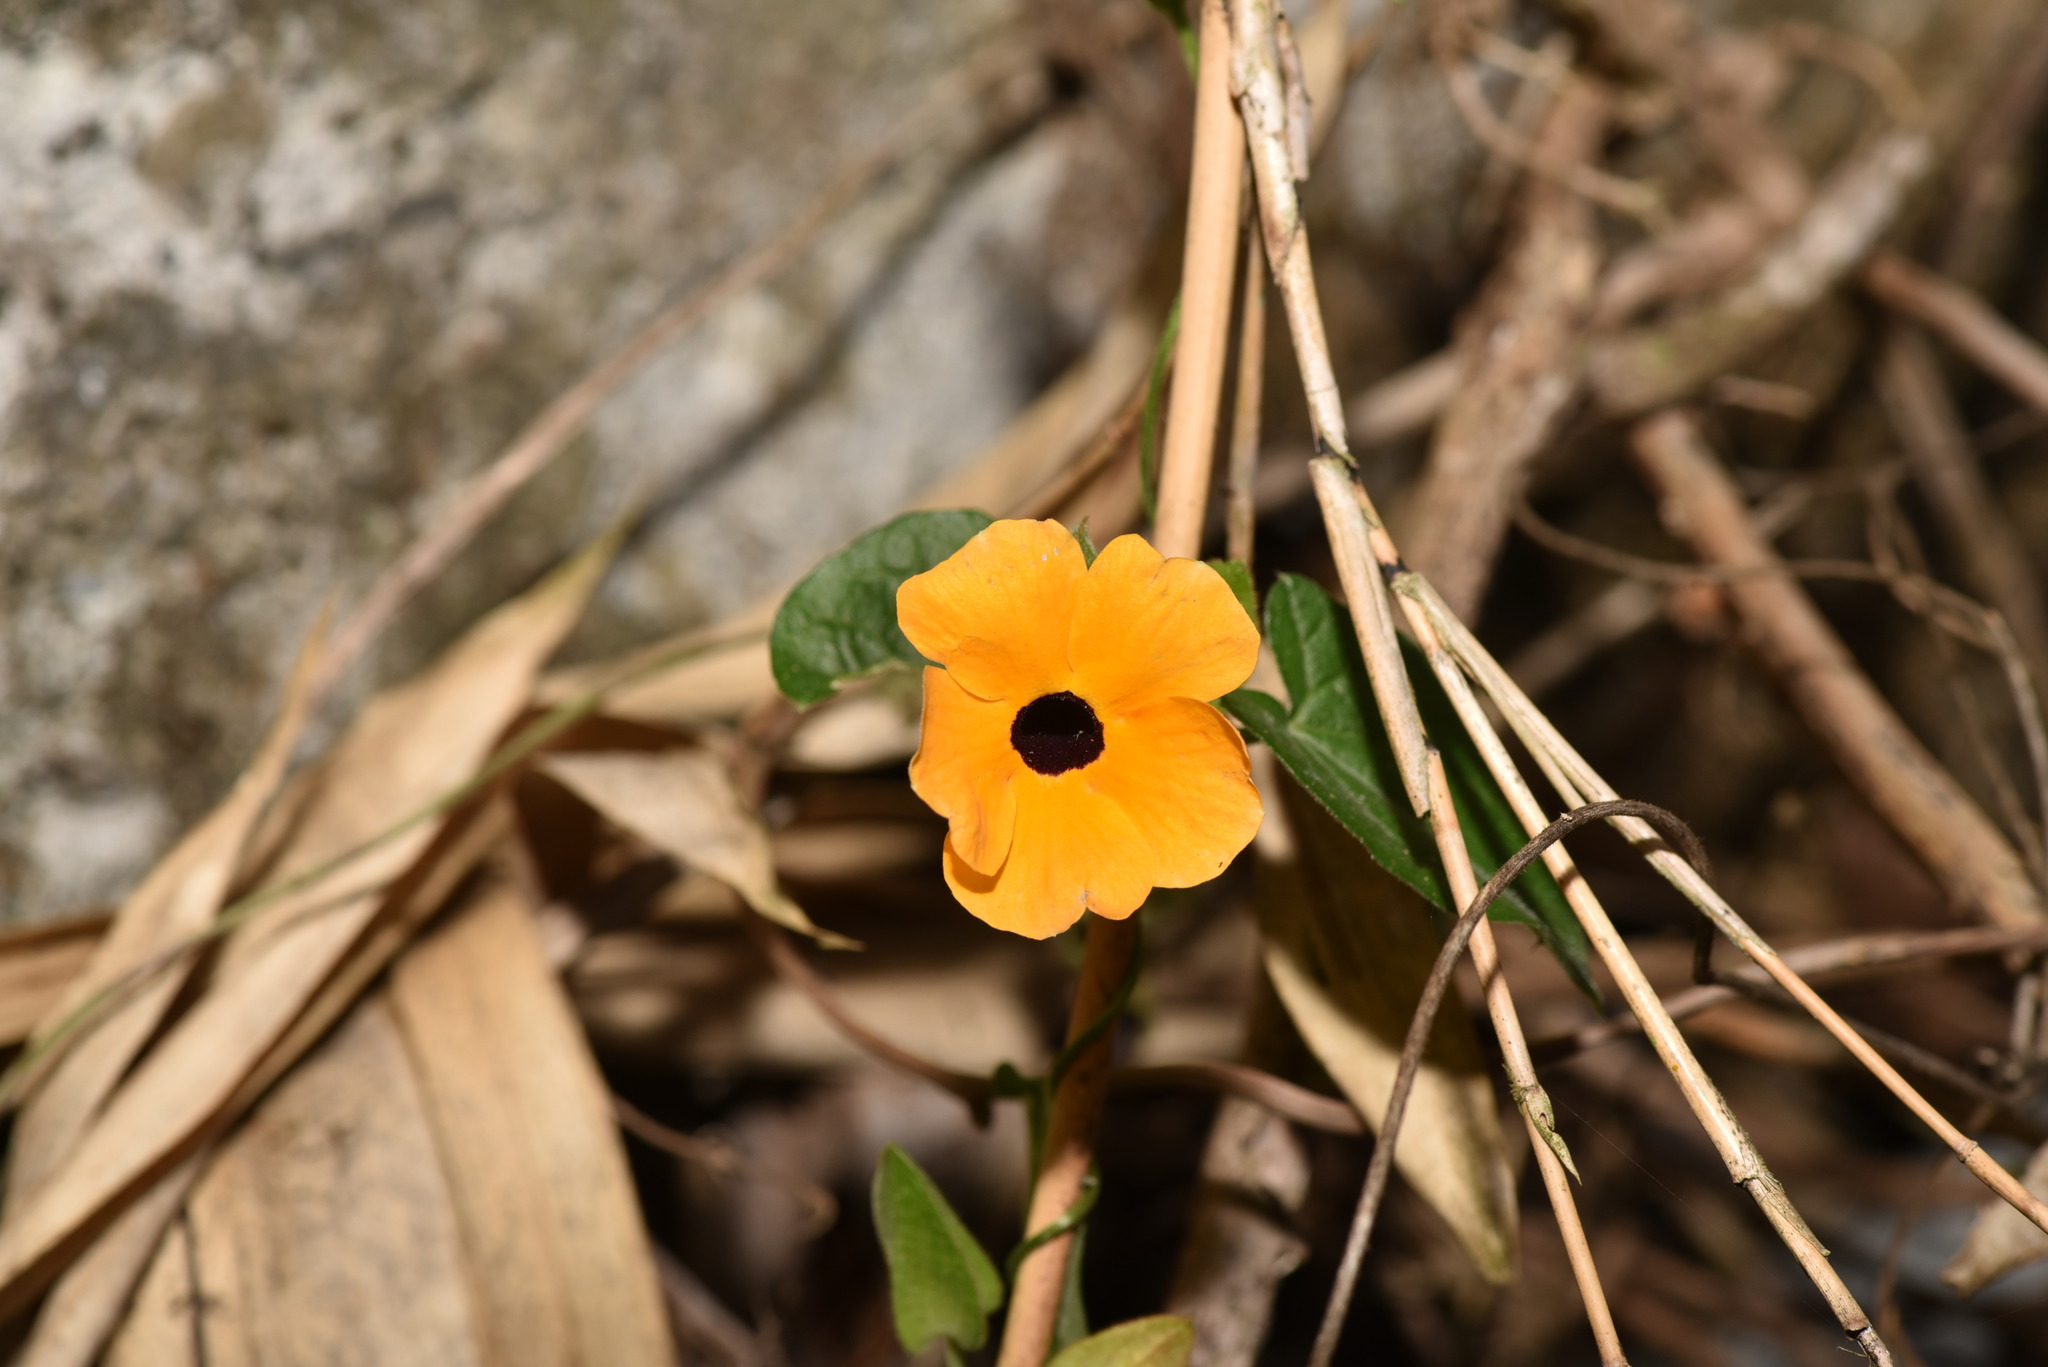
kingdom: Plantae
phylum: Tracheophyta
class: Magnoliopsida
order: Lamiales
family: Acanthaceae
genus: Thunbergia
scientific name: Thunbergia alata
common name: Blackeyed susan vine
